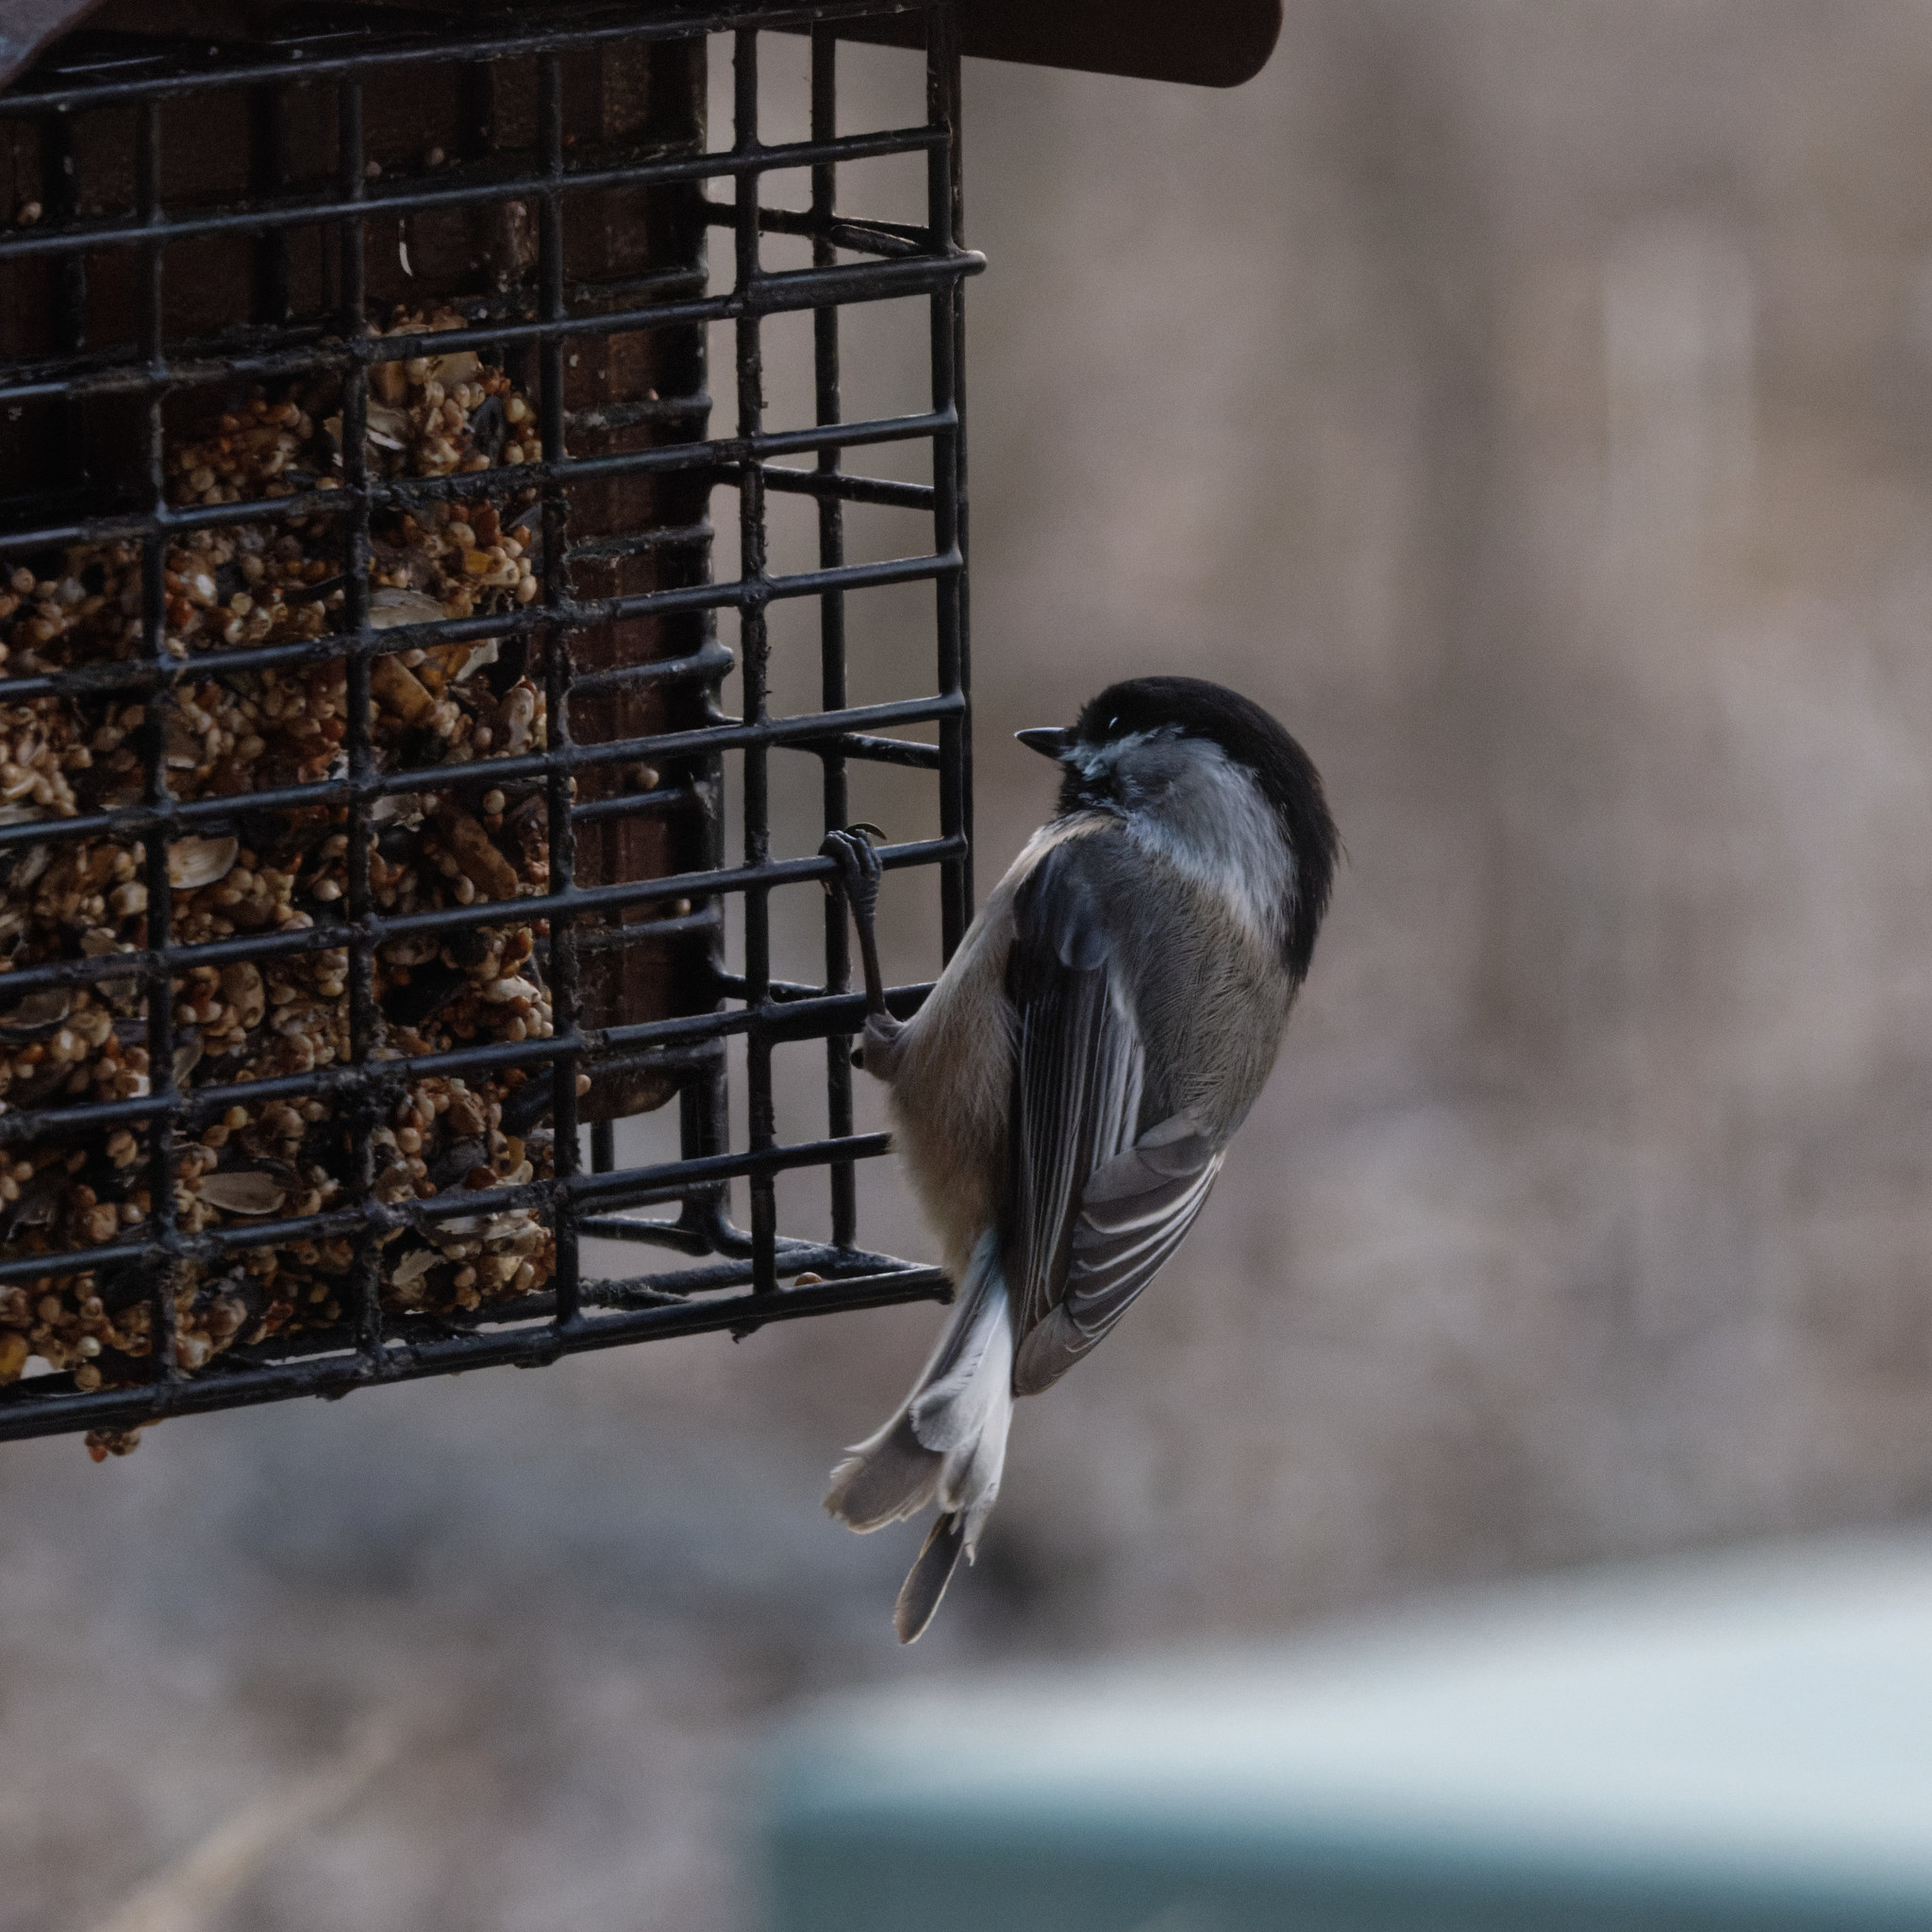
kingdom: Animalia
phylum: Chordata
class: Aves
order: Passeriformes
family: Paridae
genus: Poecile
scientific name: Poecile atricapillus
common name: Black-capped chickadee
